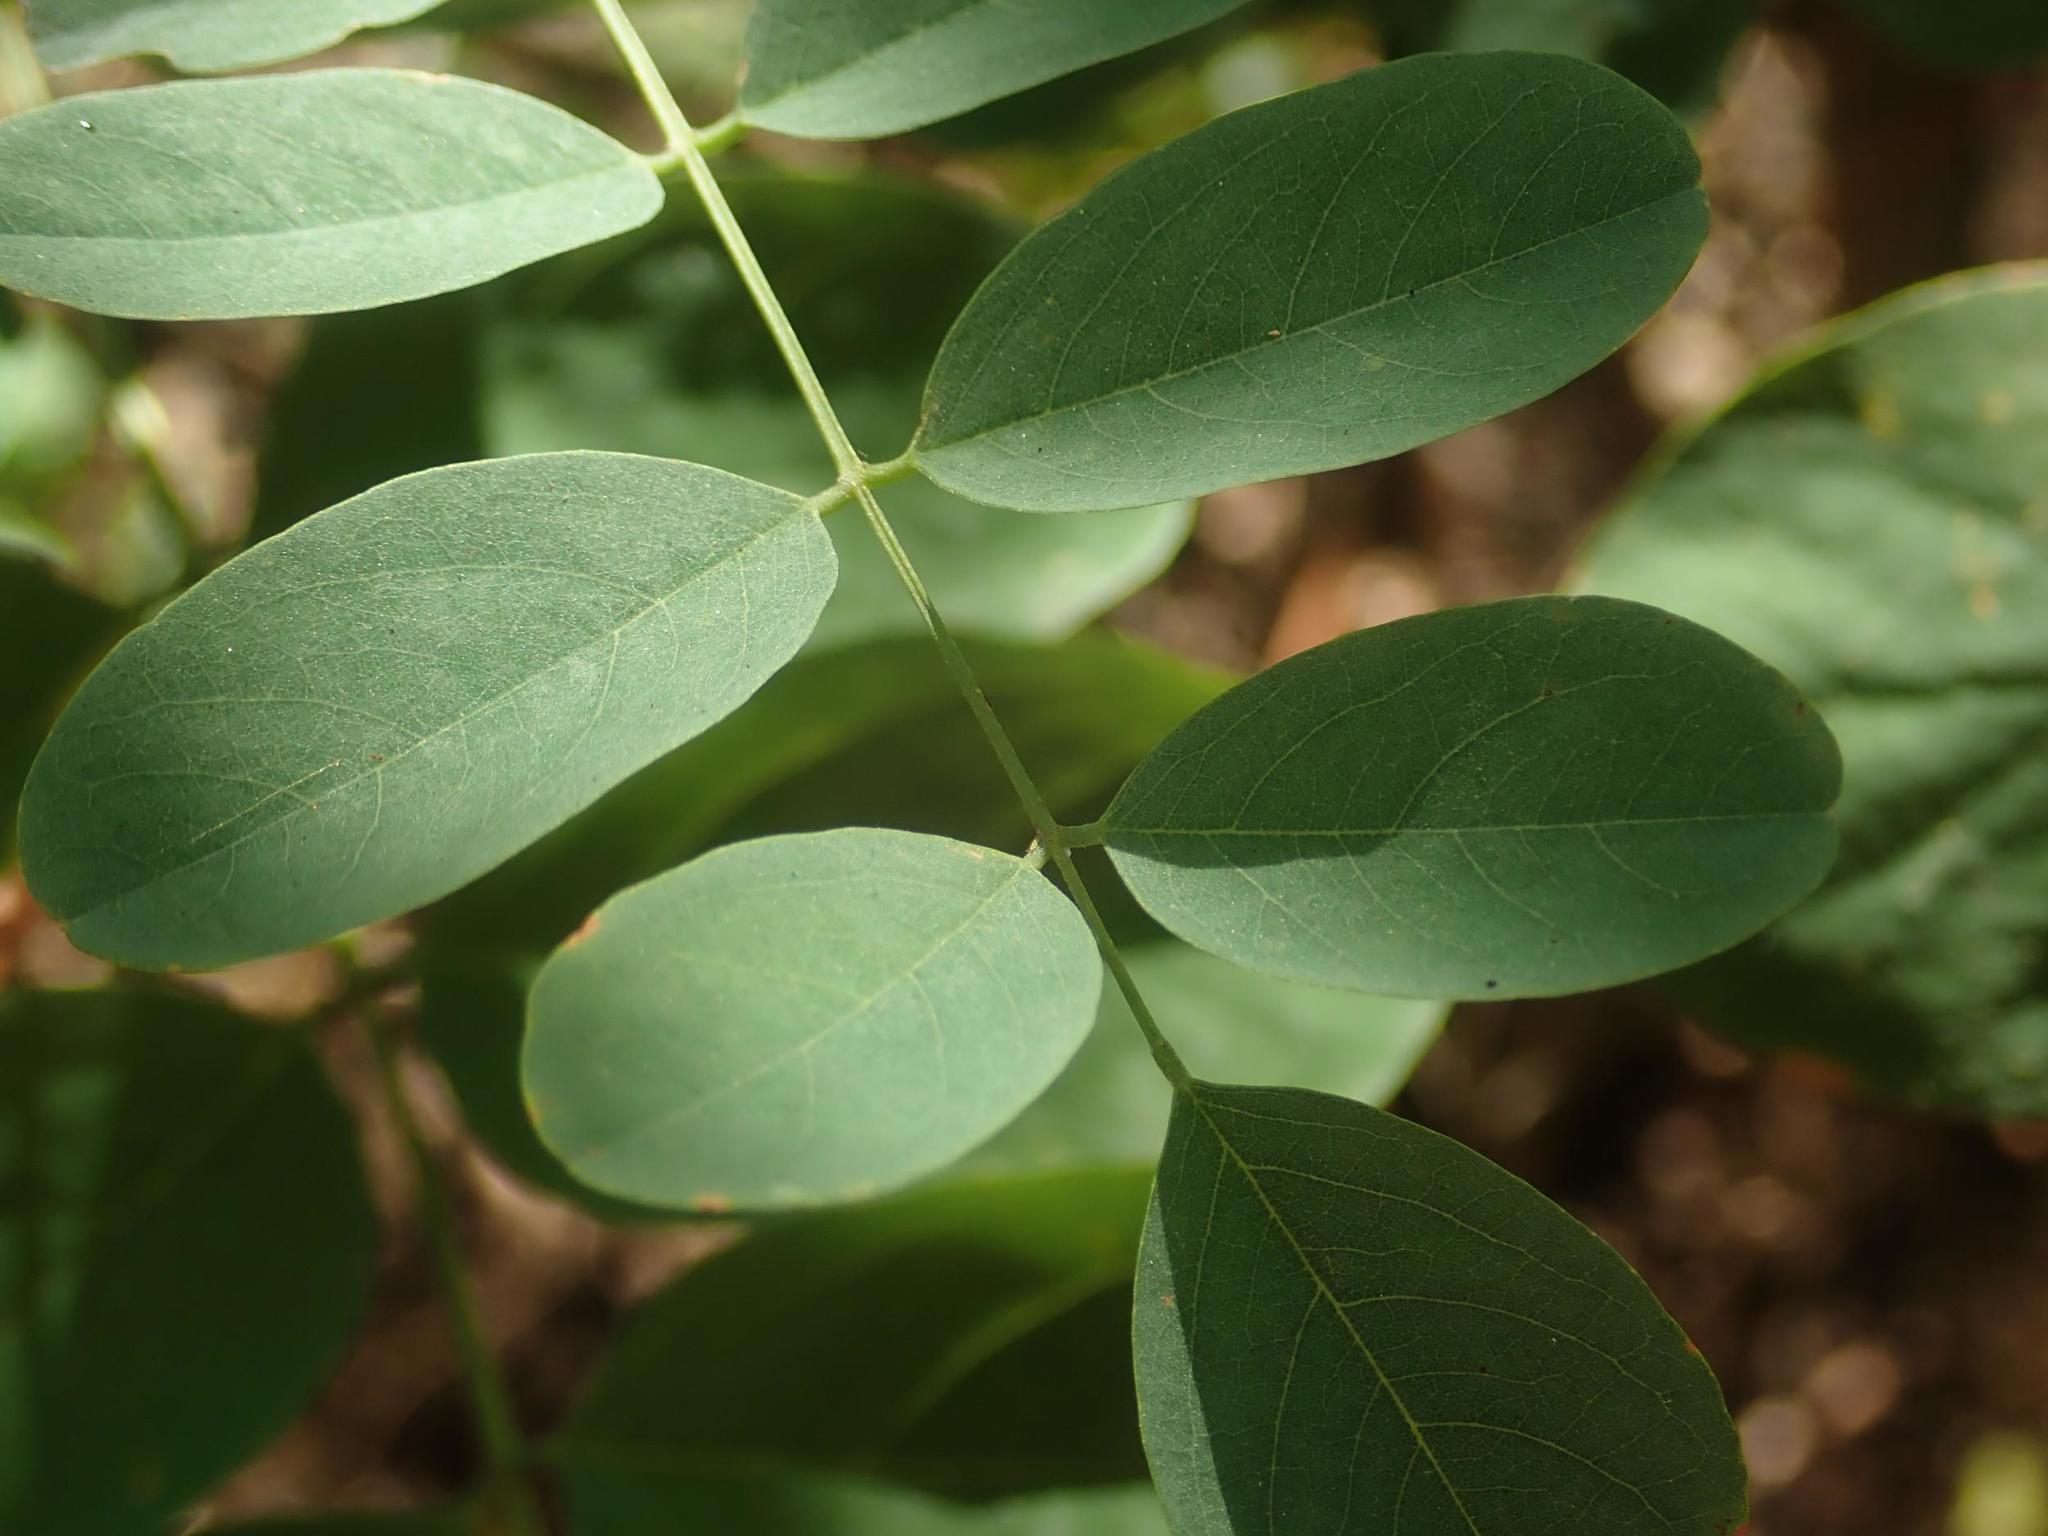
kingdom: Plantae
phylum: Tracheophyta
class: Magnoliopsida
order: Fabales
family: Fabaceae
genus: Robinia
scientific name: Robinia pseudoacacia
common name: Black locust
